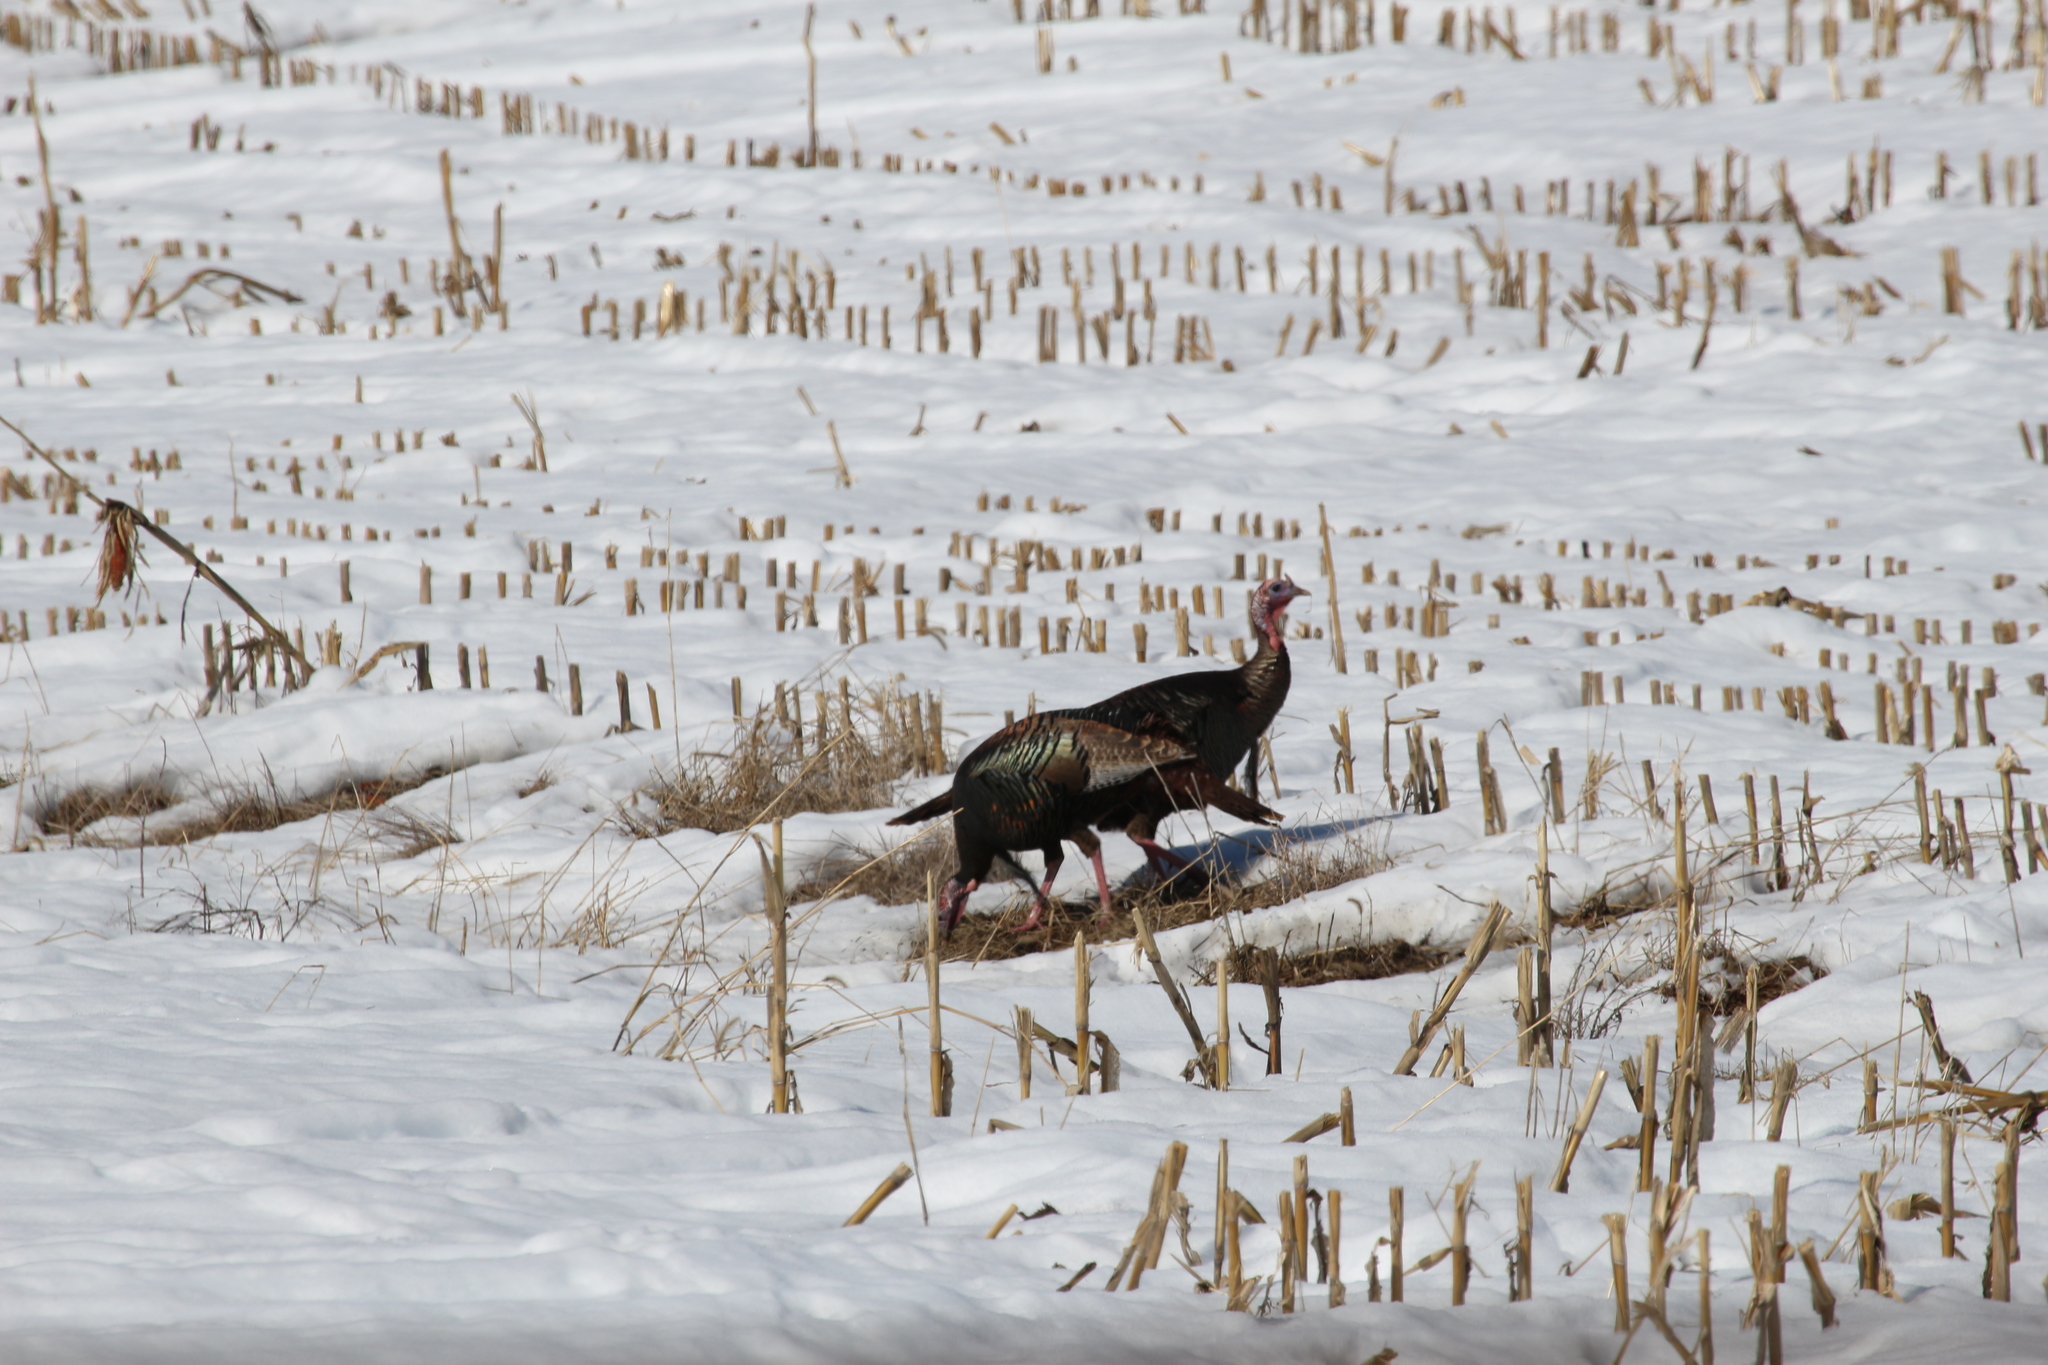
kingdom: Animalia
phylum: Chordata
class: Aves
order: Galliformes
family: Phasianidae
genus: Meleagris
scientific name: Meleagris gallopavo
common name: Wild turkey
